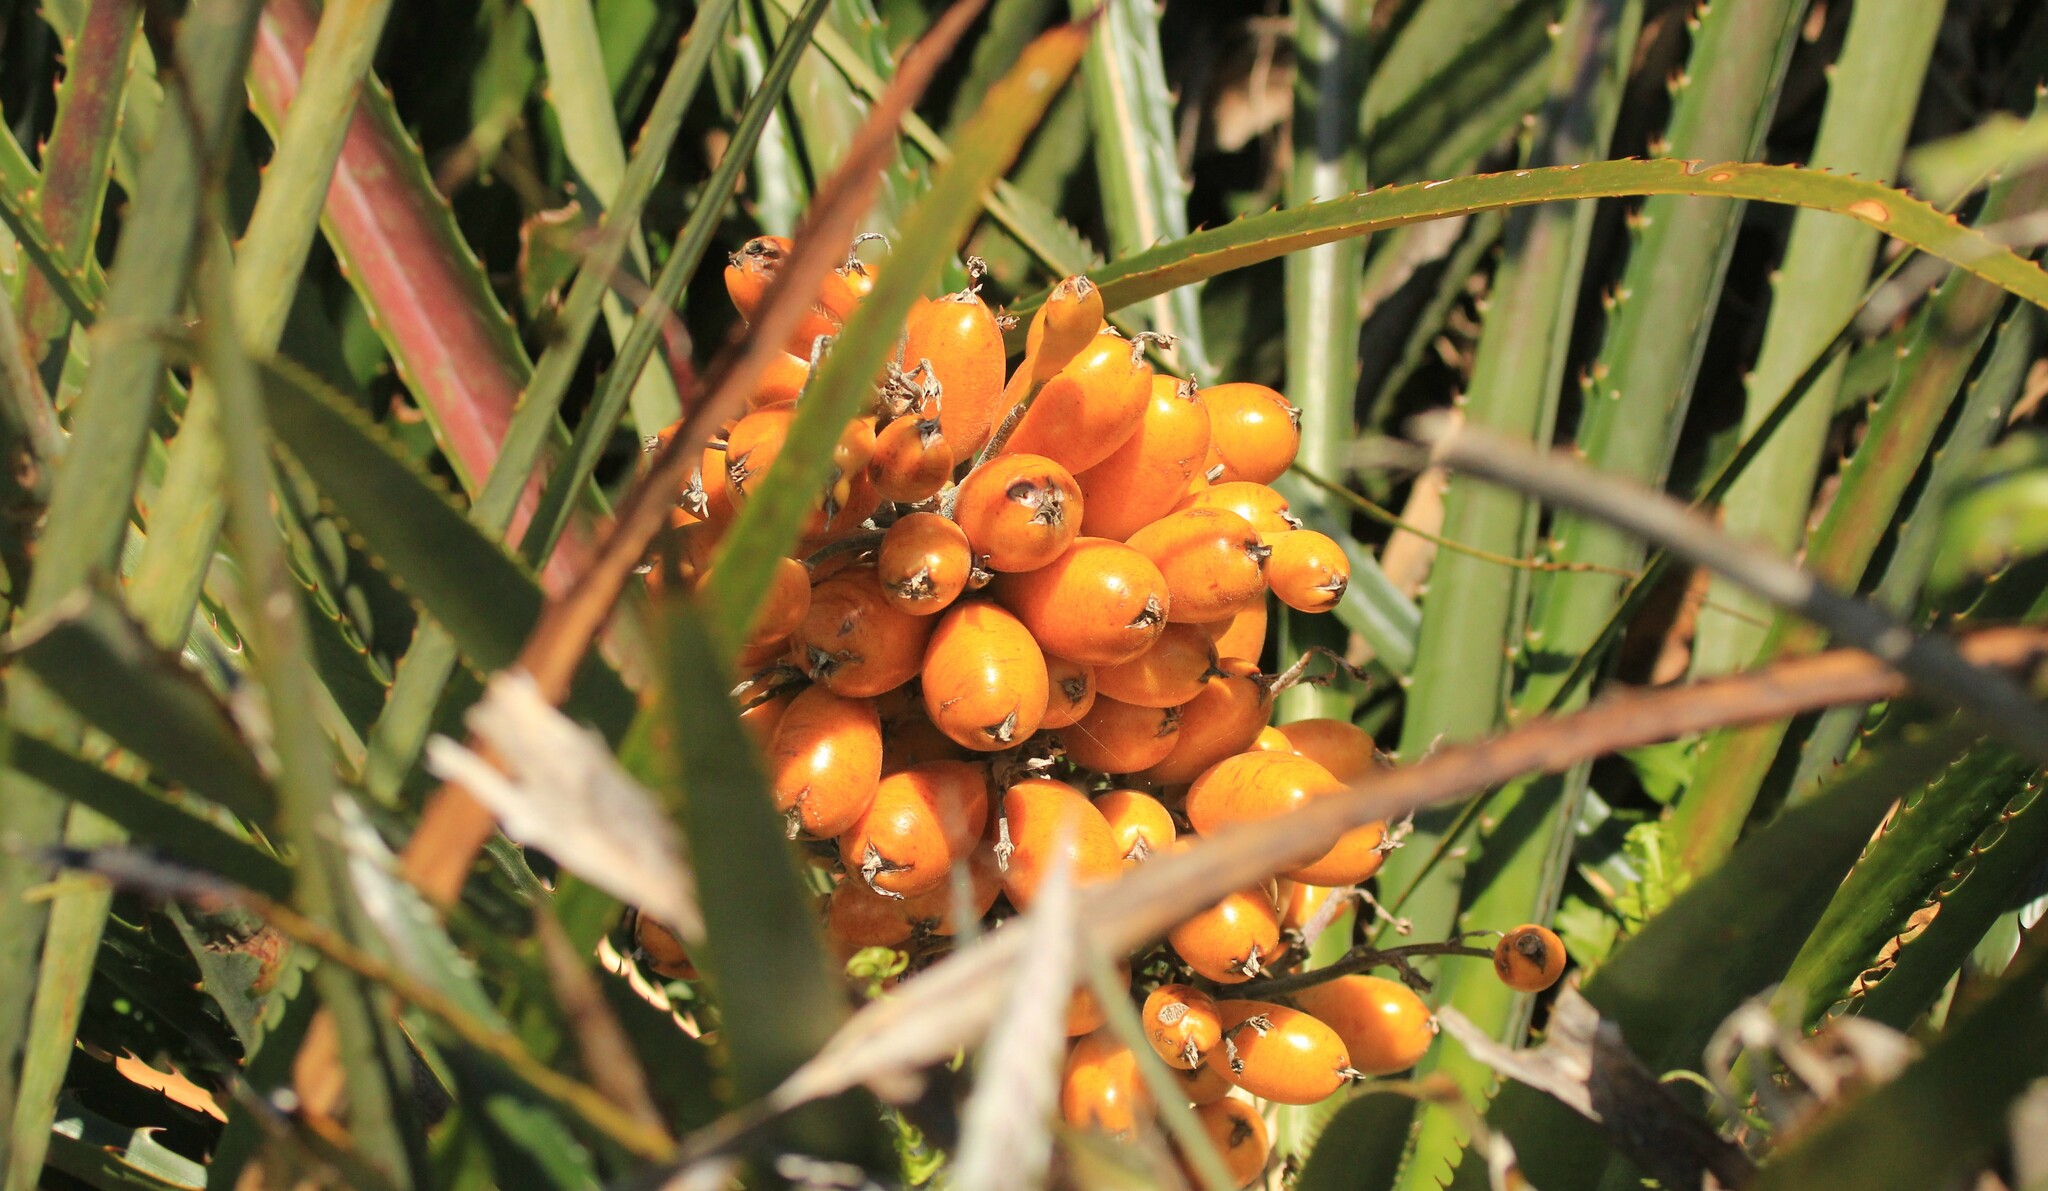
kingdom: Plantae
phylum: Tracheophyta
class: Liliopsida
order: Poales
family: Bromeliaceae
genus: Bromelia
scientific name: Bromelia antiacantha
